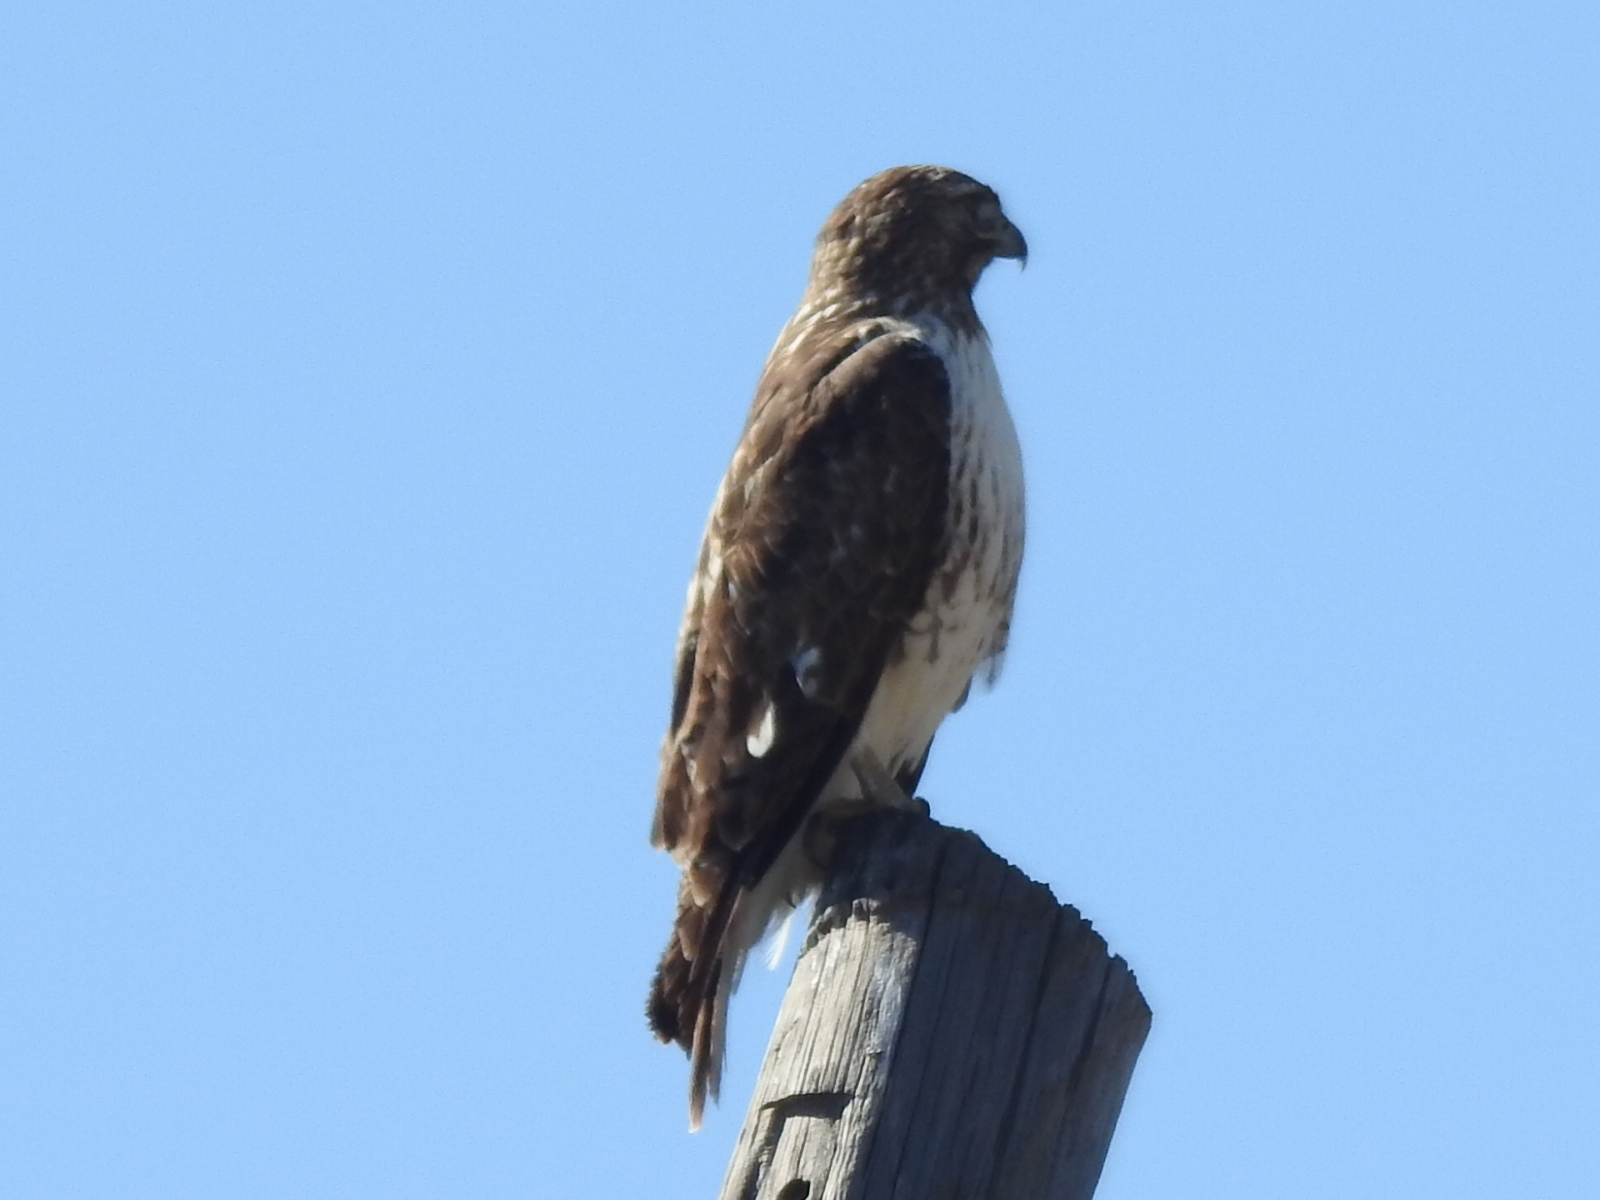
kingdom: Animalia
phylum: Chordata
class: Aves
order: Accipitriformes
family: Accipitridae
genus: Buteo
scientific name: Buteo jamaicensis
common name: Red-tailed hawk
